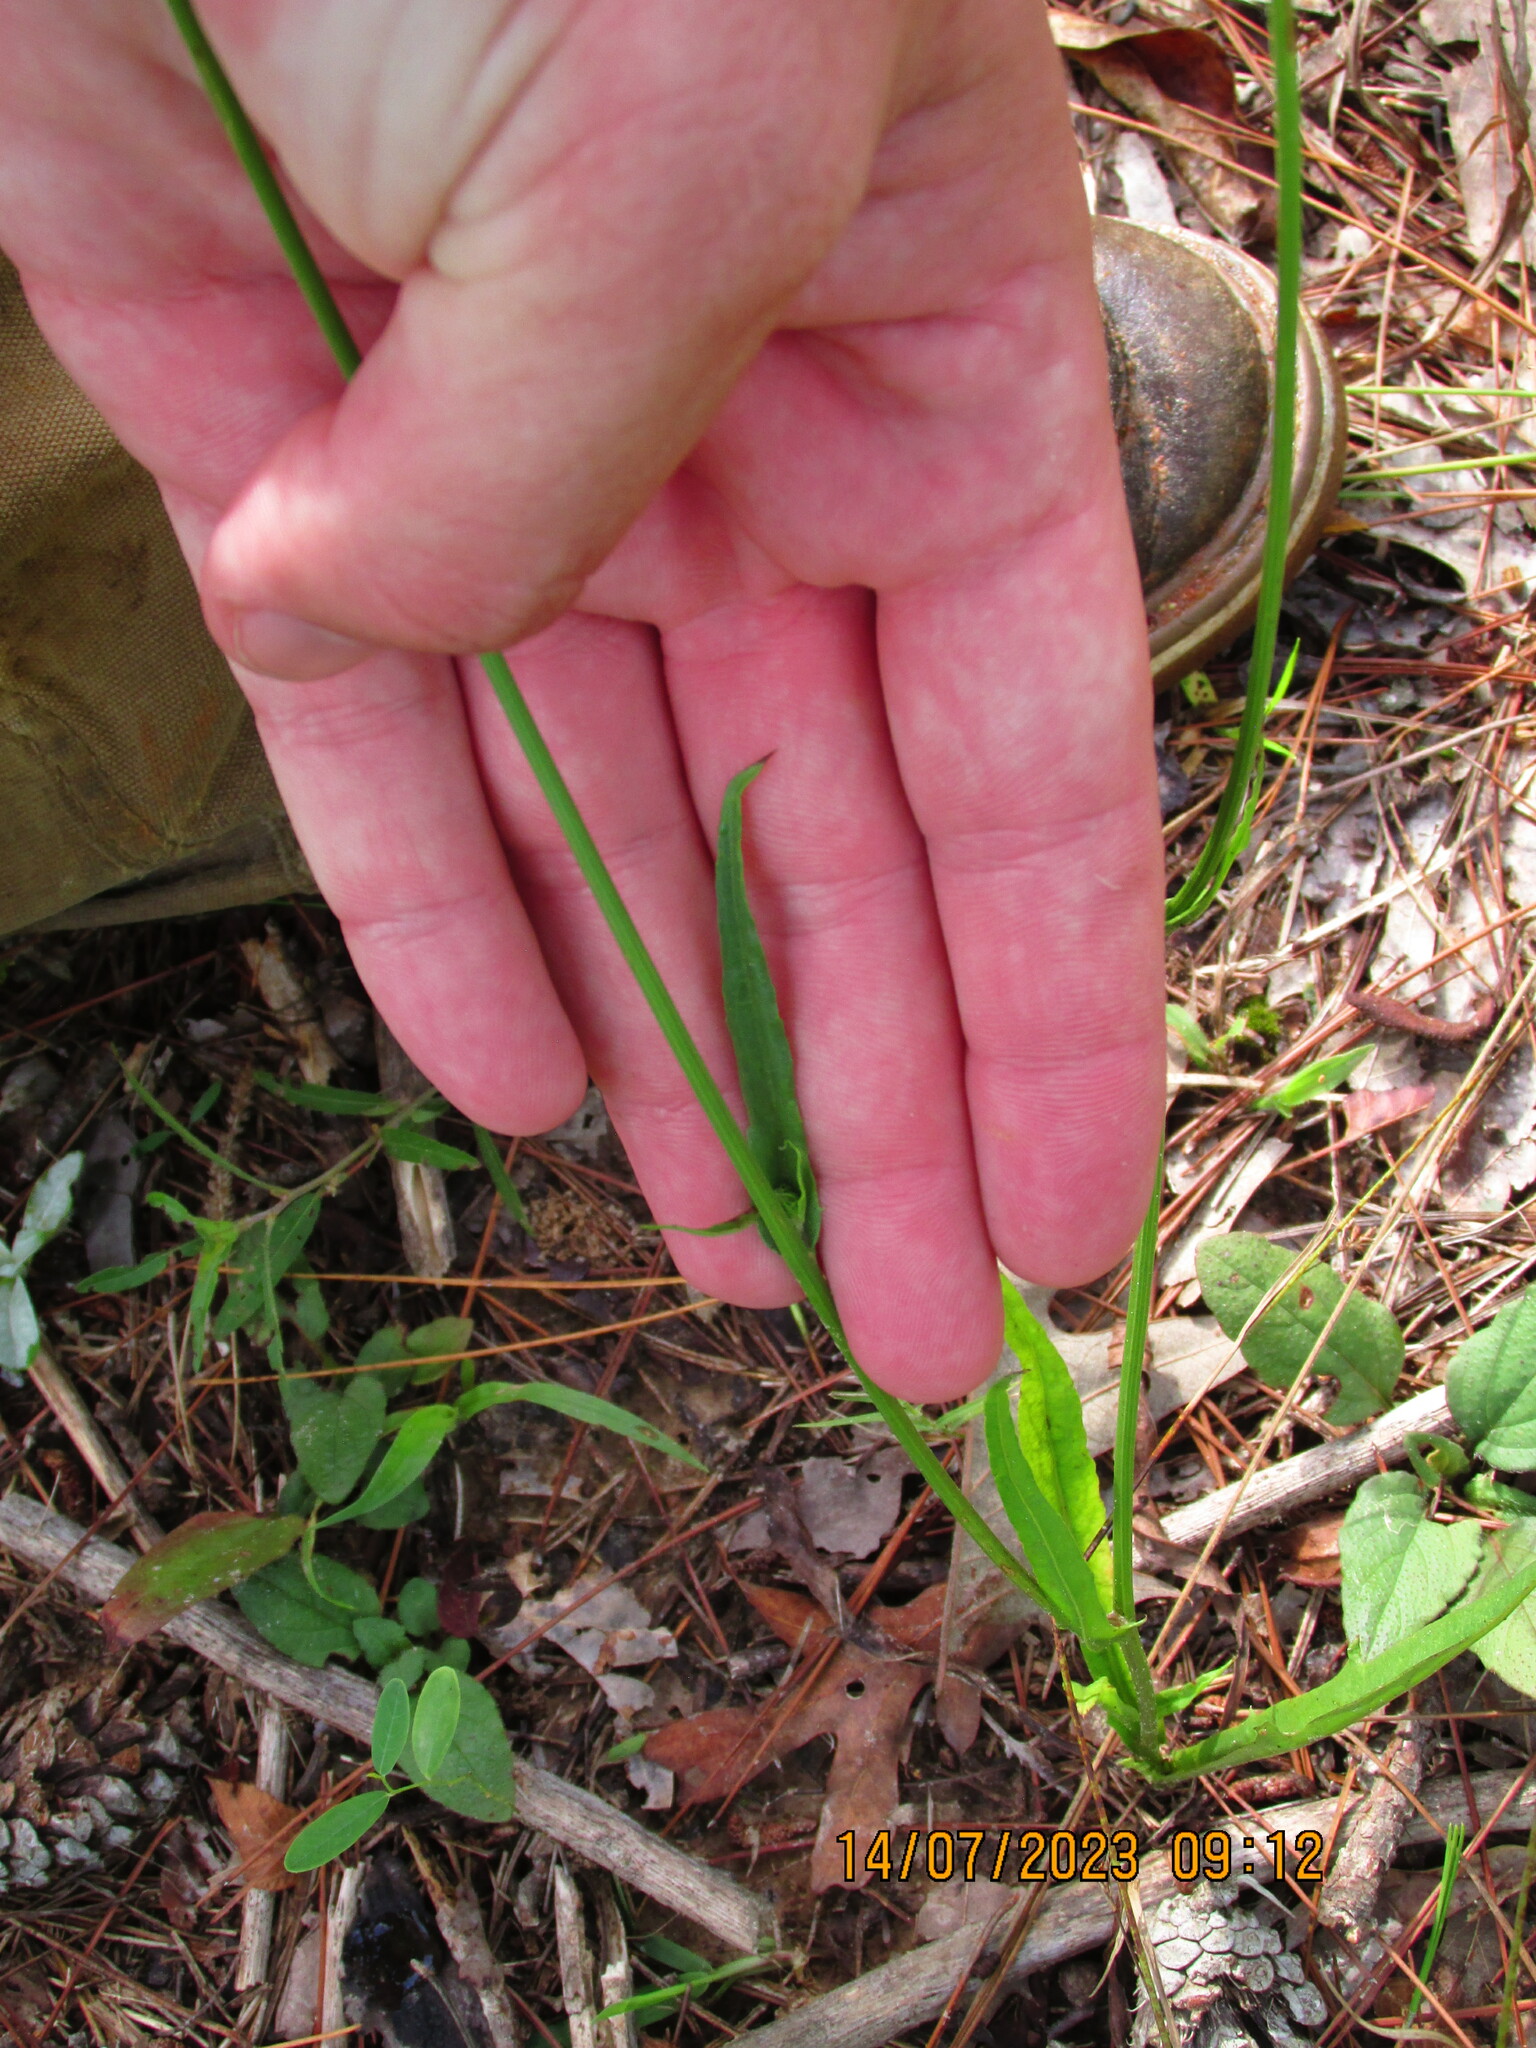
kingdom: Plantae
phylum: Tracheophyta
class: Magnoliopsida
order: Asterales
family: Asteraceae
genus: Pyrrhopappus
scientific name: Pyrrhopappus carolinianus
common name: Carolina desert-chicory
